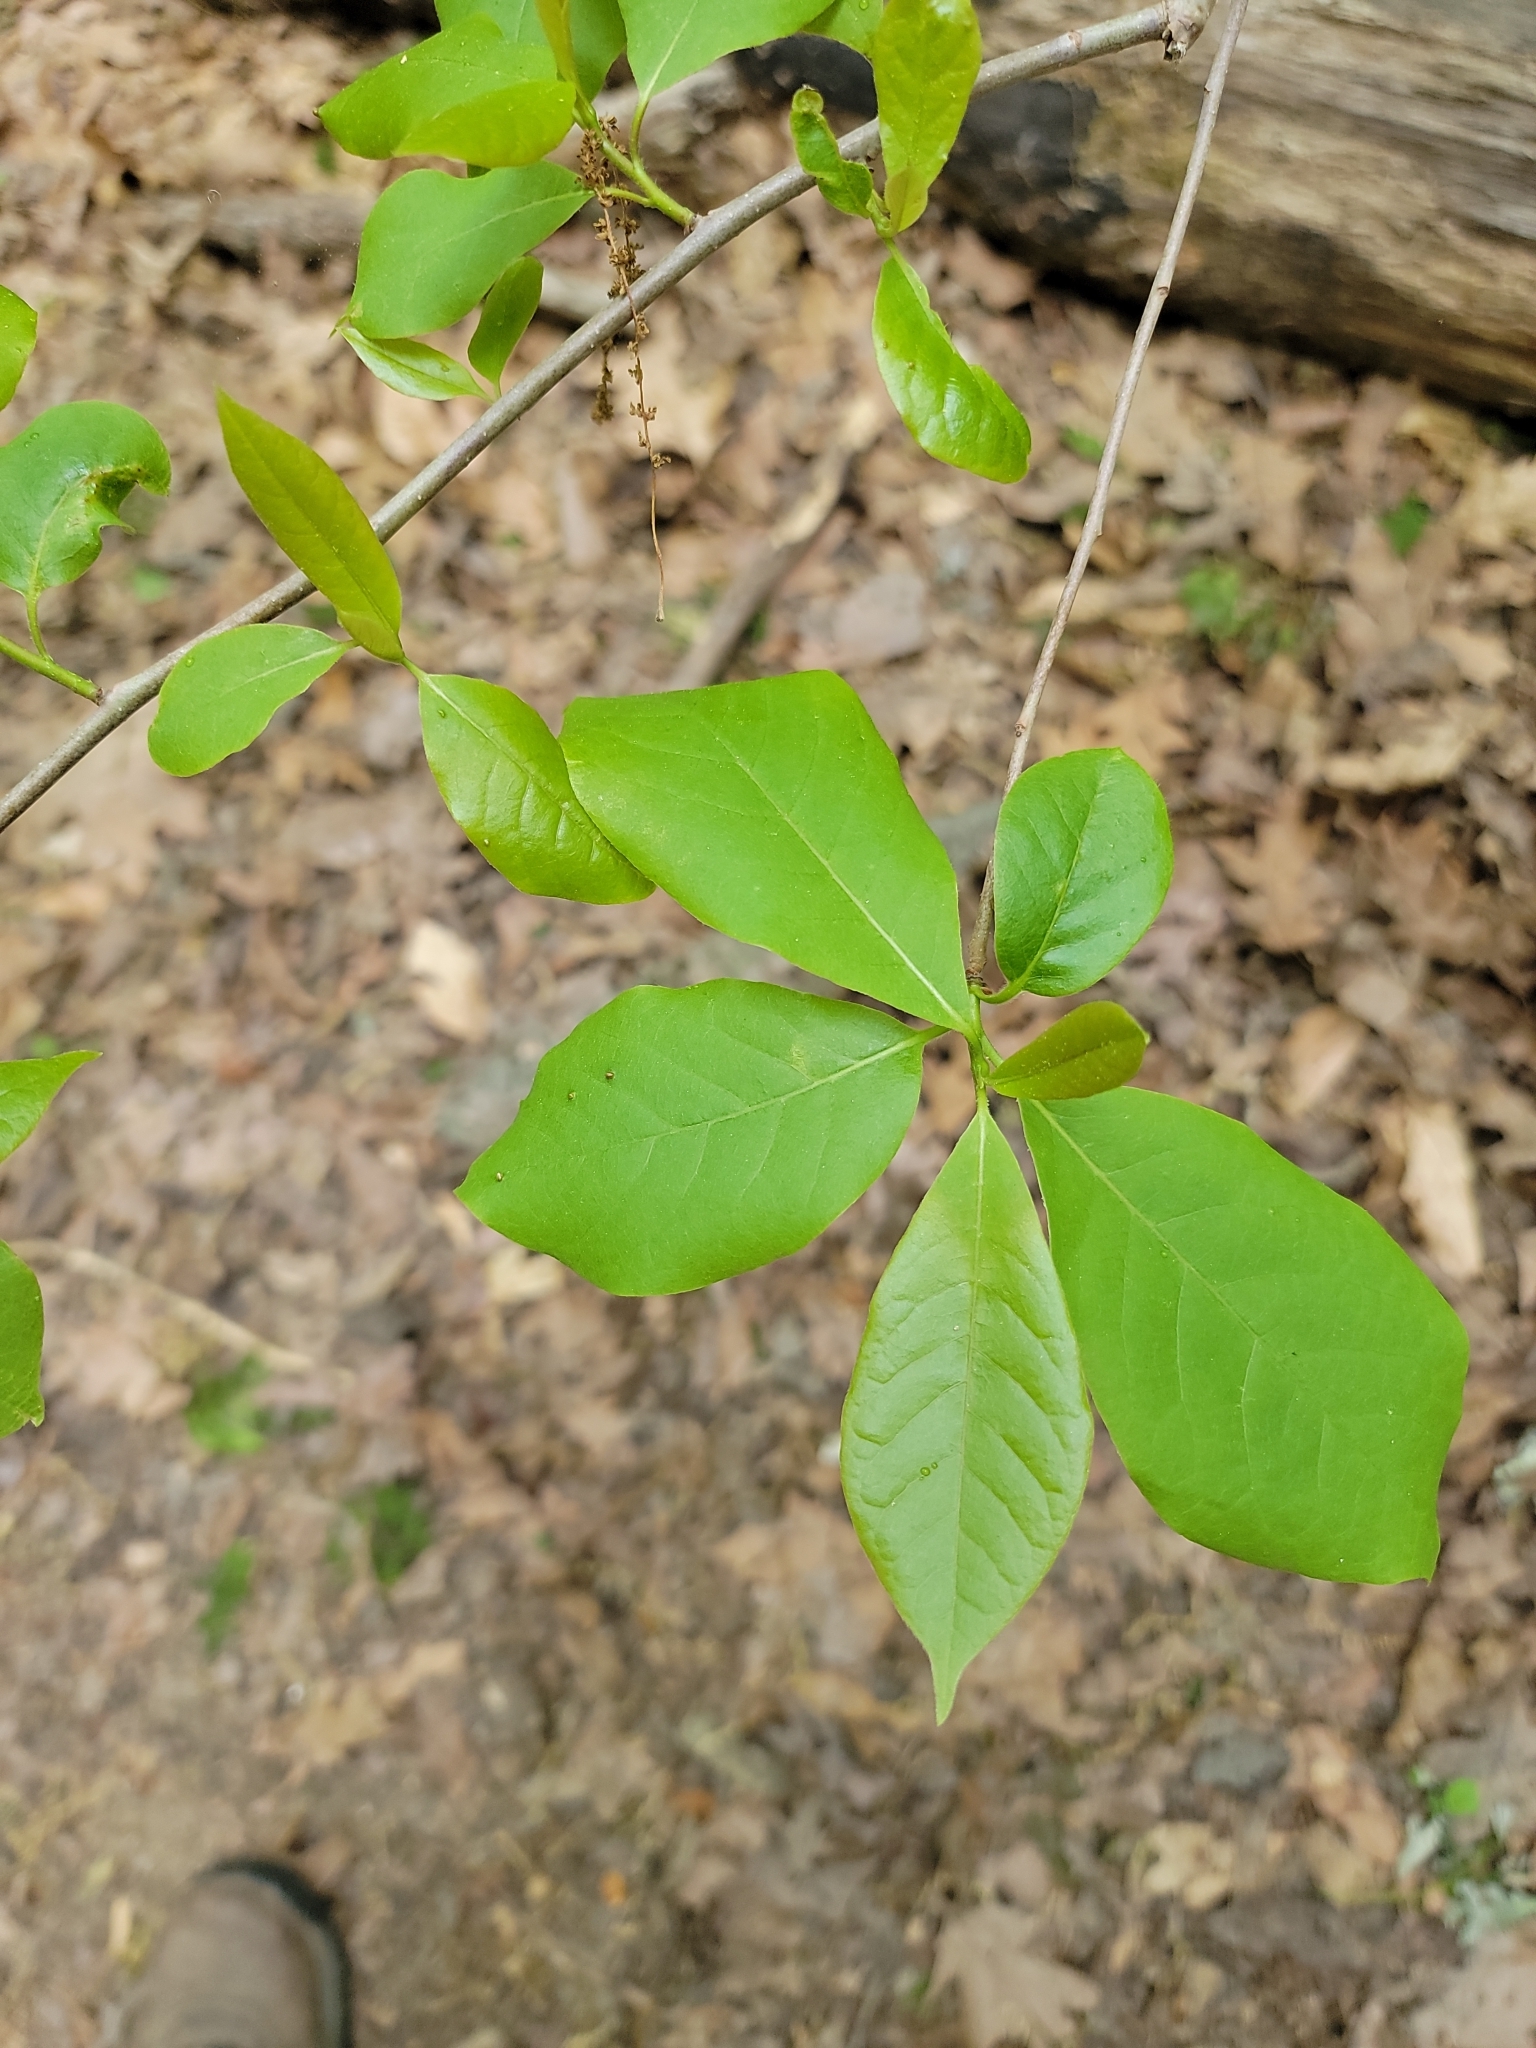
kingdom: Plantae
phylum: Tracheophyta
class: Magnoliopsida
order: Cornales
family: Nyssaceae
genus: Nyssa
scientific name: Nyssa sylvatica
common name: Black tupelo
